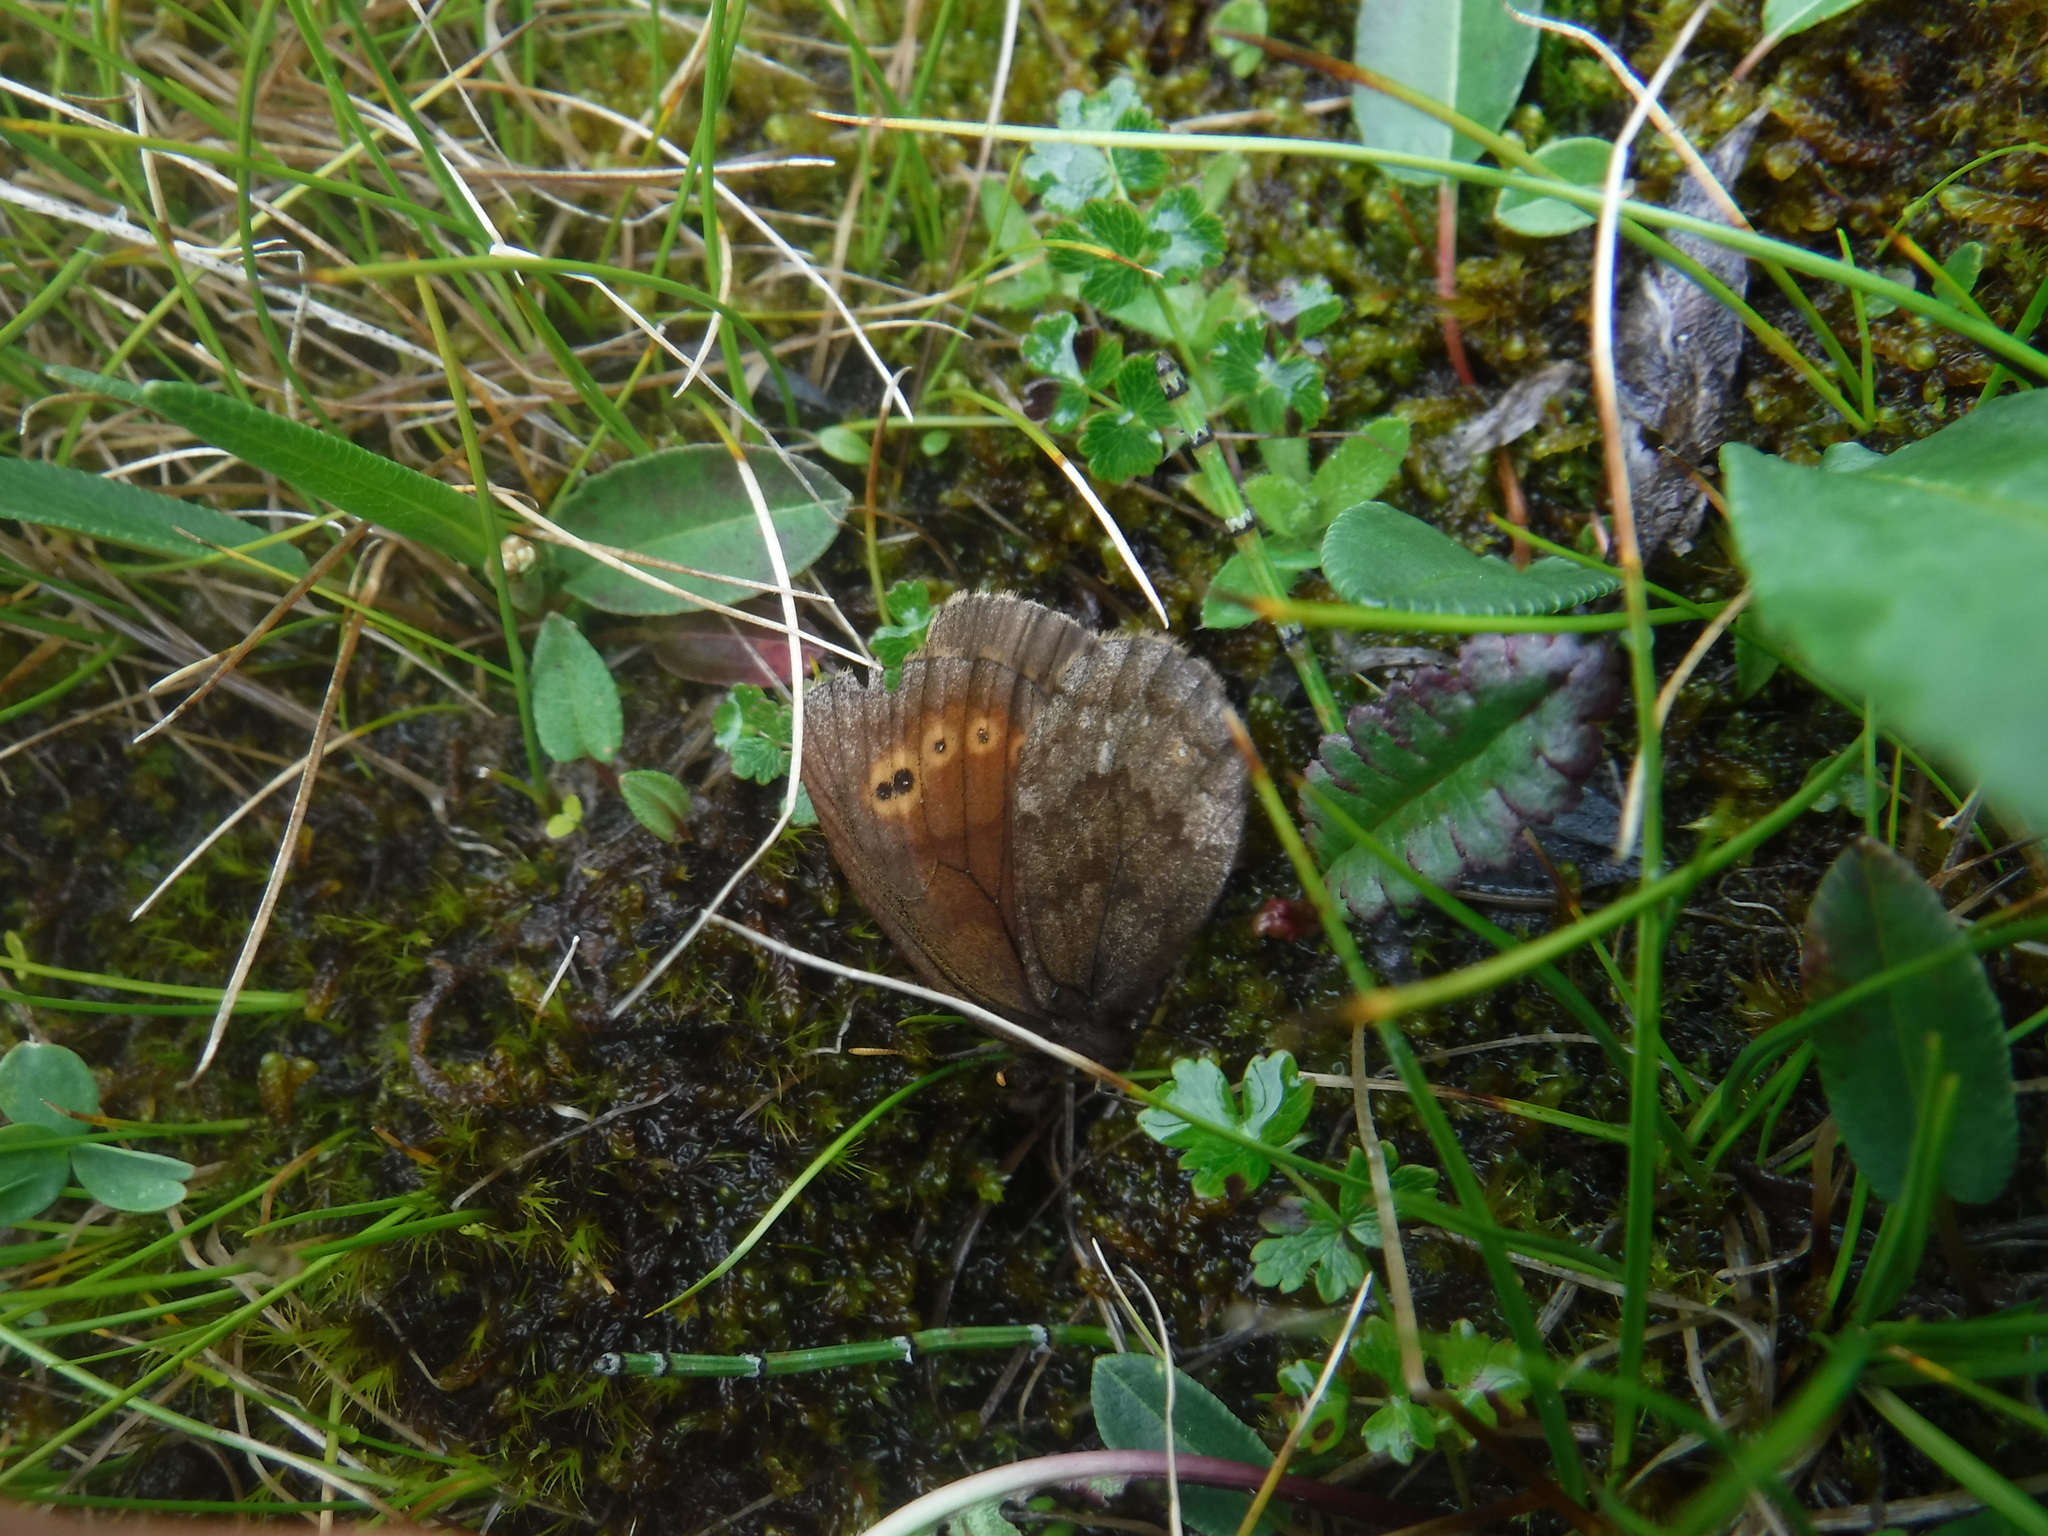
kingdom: Animalia
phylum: Arthropoda
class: Insecta
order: Lepidoptera
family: Nymphalidae
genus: Erebia
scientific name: Erebia rossii
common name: Ross' alpine
